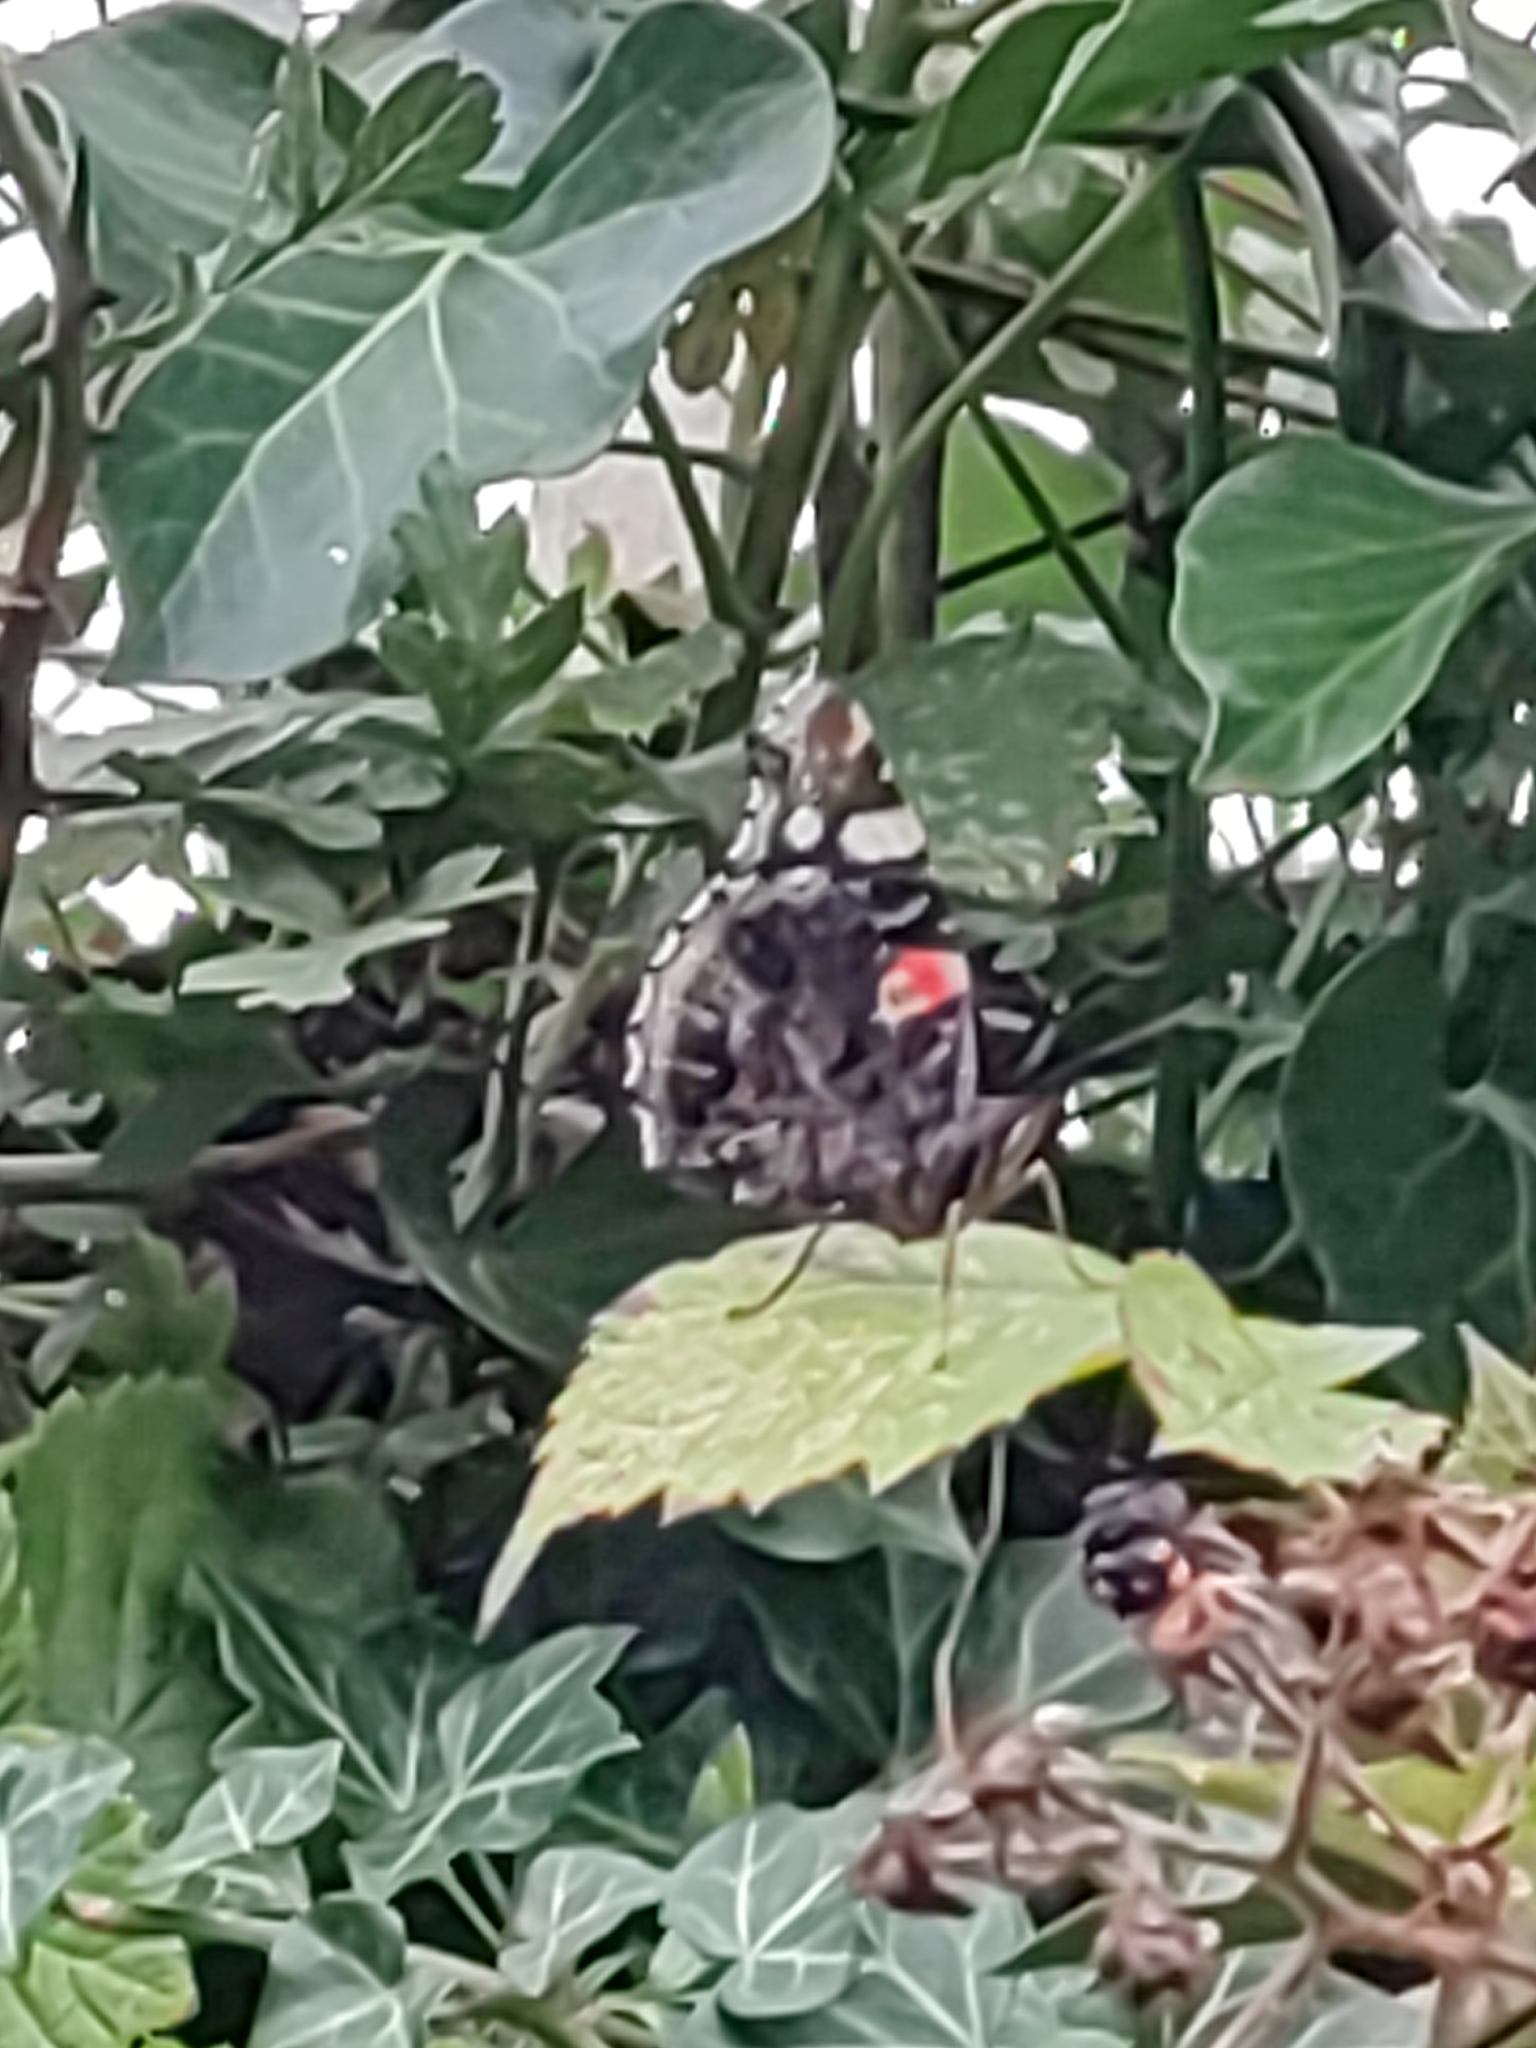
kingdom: Animalia
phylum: Arthropoda
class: Insecta
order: Lepidoptera
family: Nymphalidae
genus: Vanessa
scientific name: Vanessa atalanta
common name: Red admiral
